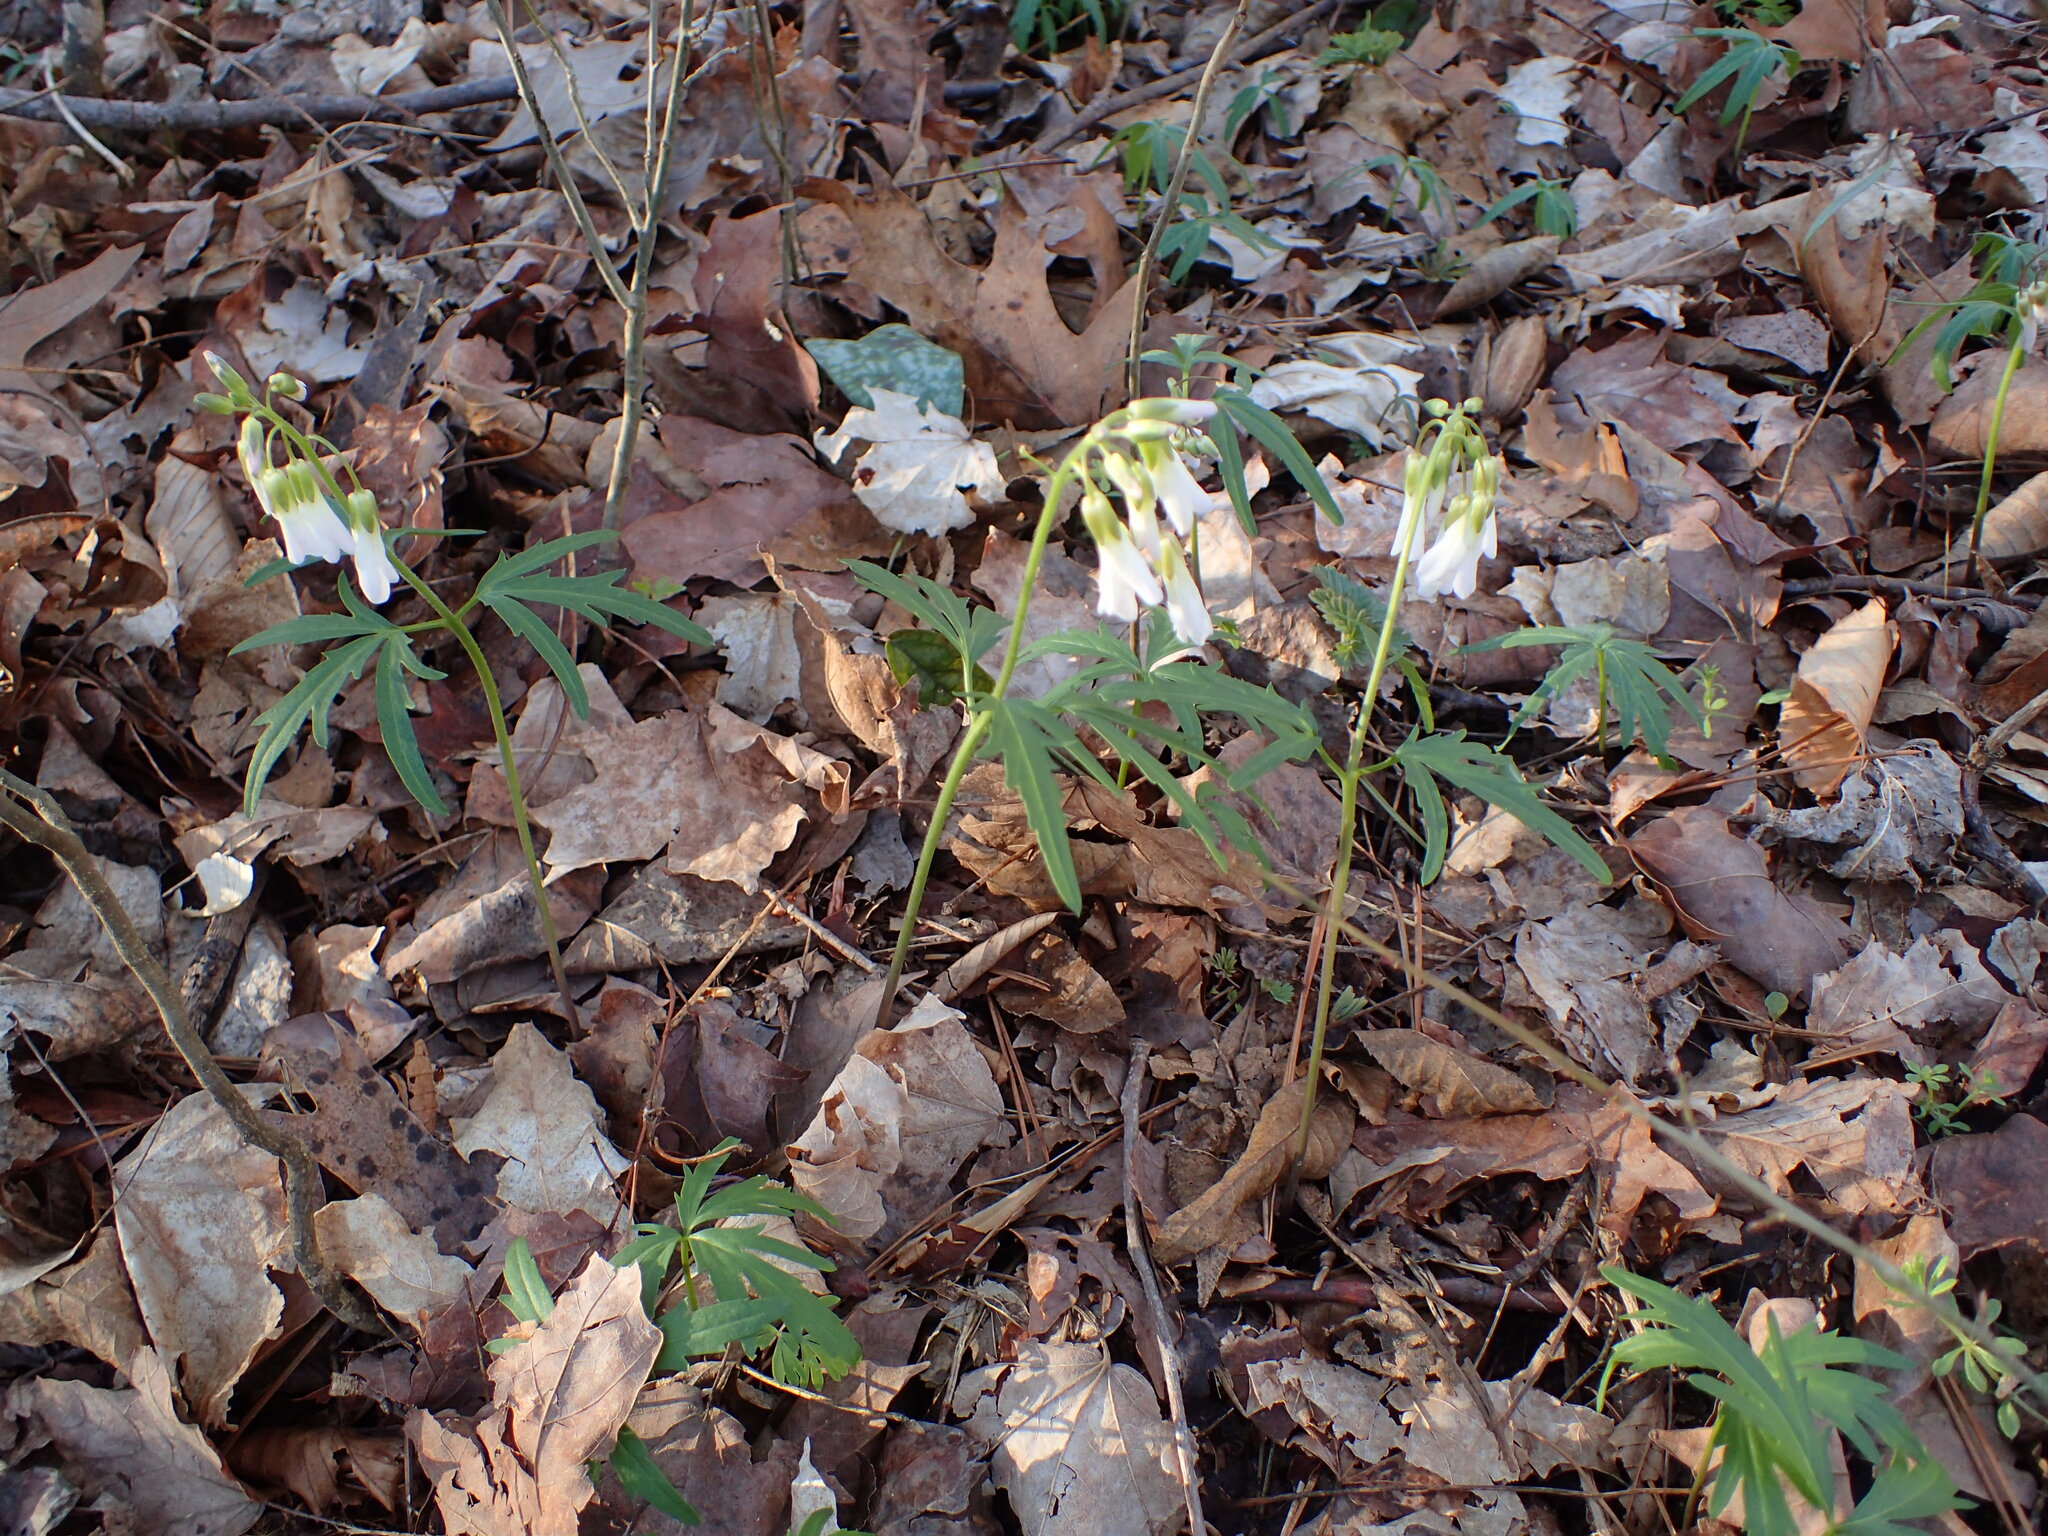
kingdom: Plantae
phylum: Tracheophyta
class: Magnoliopsida
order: Brassicales
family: Brassicaceae
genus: Cardamine
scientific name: Cardamine concatenata
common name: Cut-leaf toothcup
